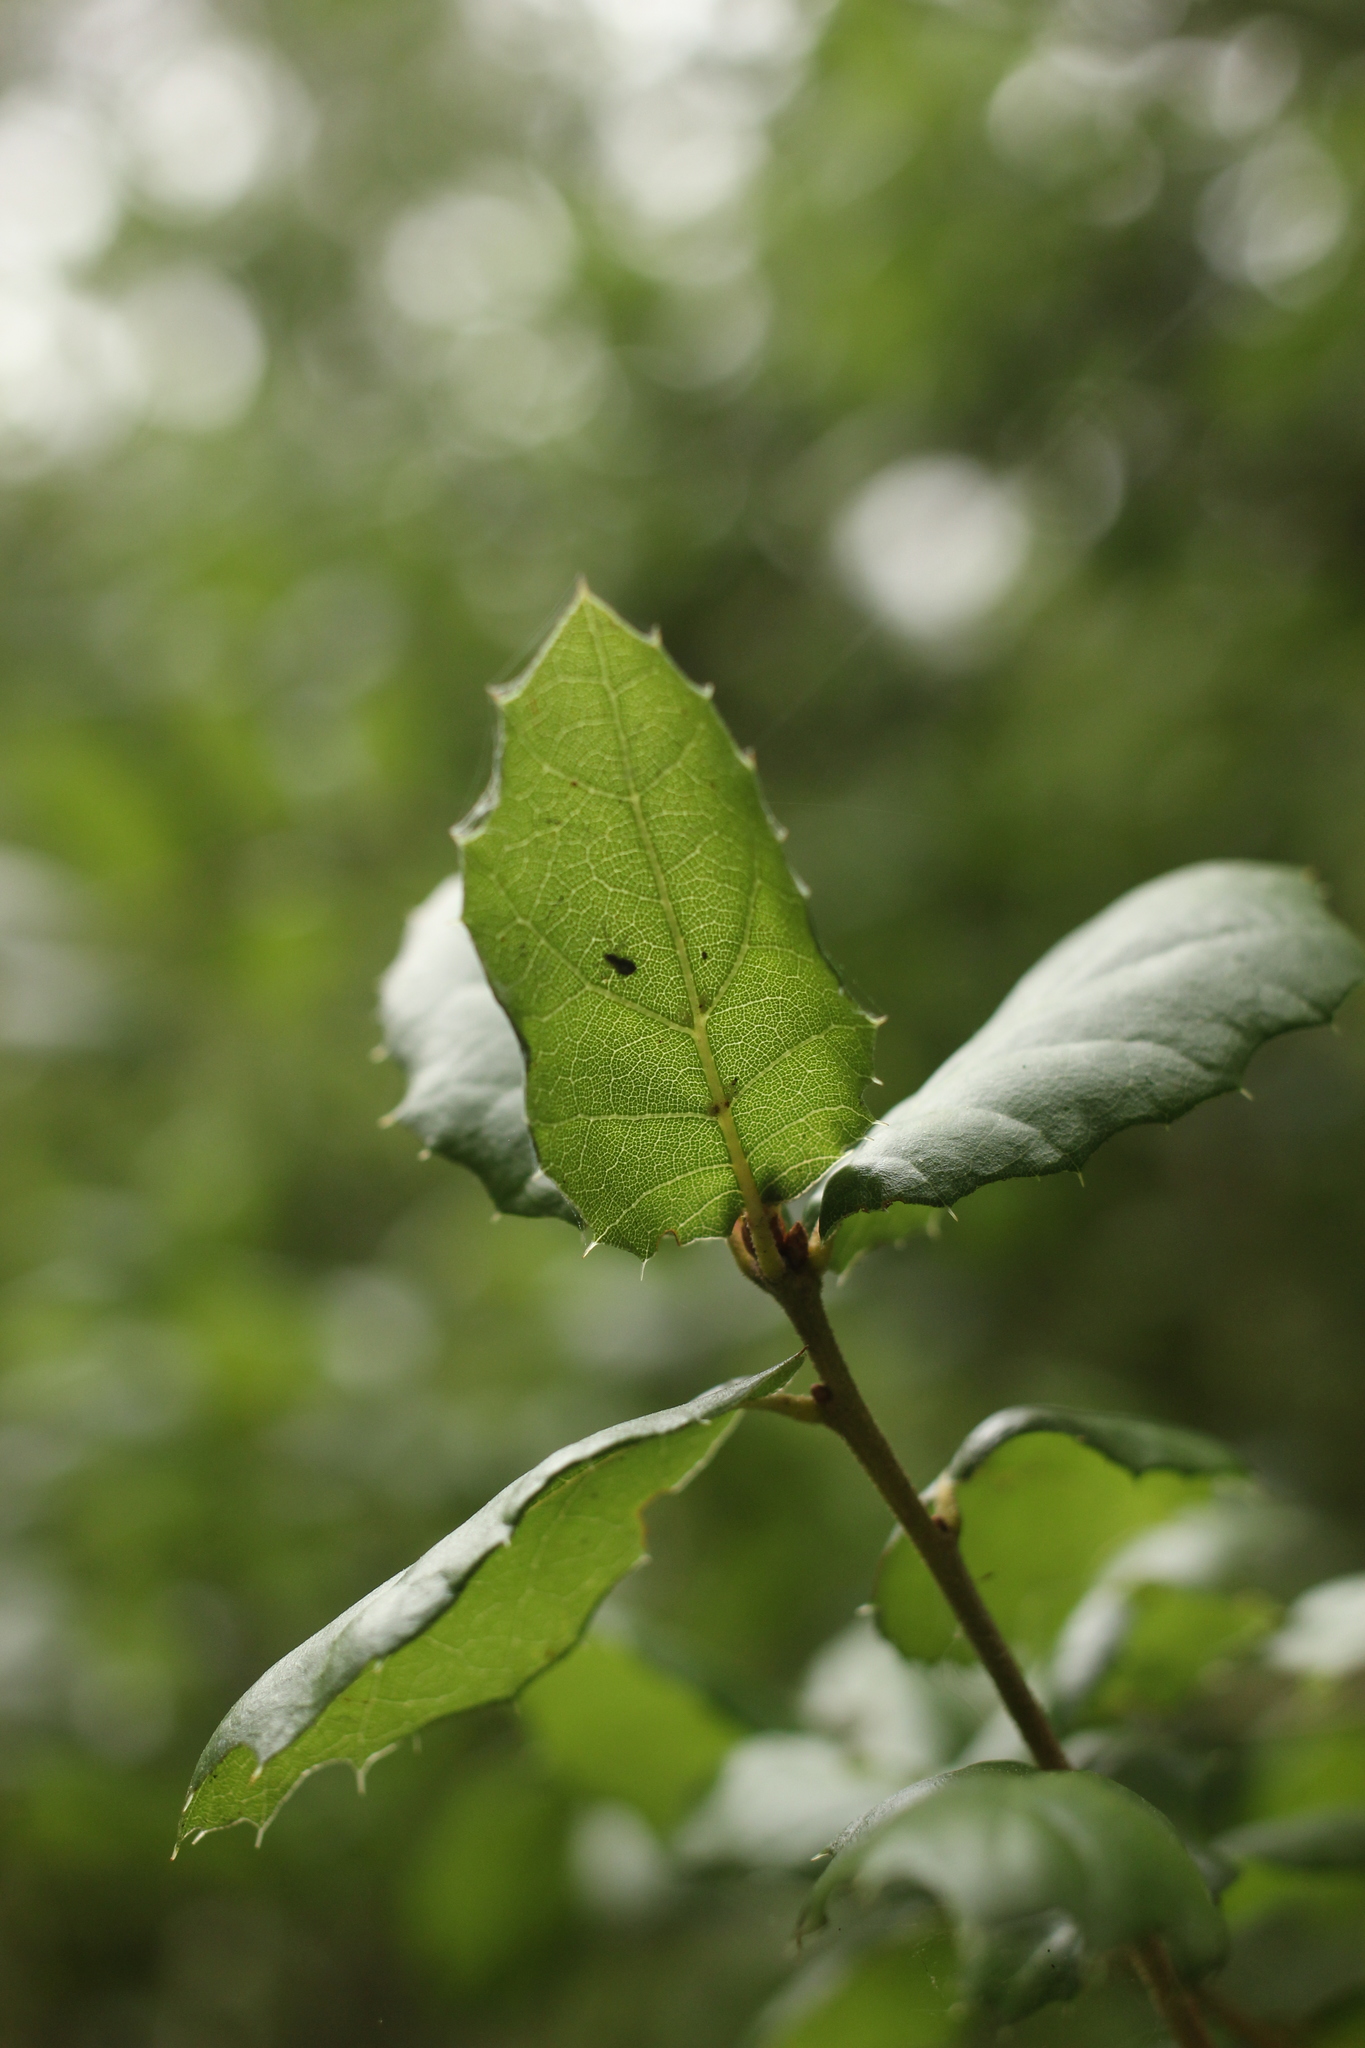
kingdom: Plantae
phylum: Tracheophyta
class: Magnoliopsida
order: Fagales
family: Fagaceae
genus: Quercus
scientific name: Quercus agrifolia
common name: California live oak
